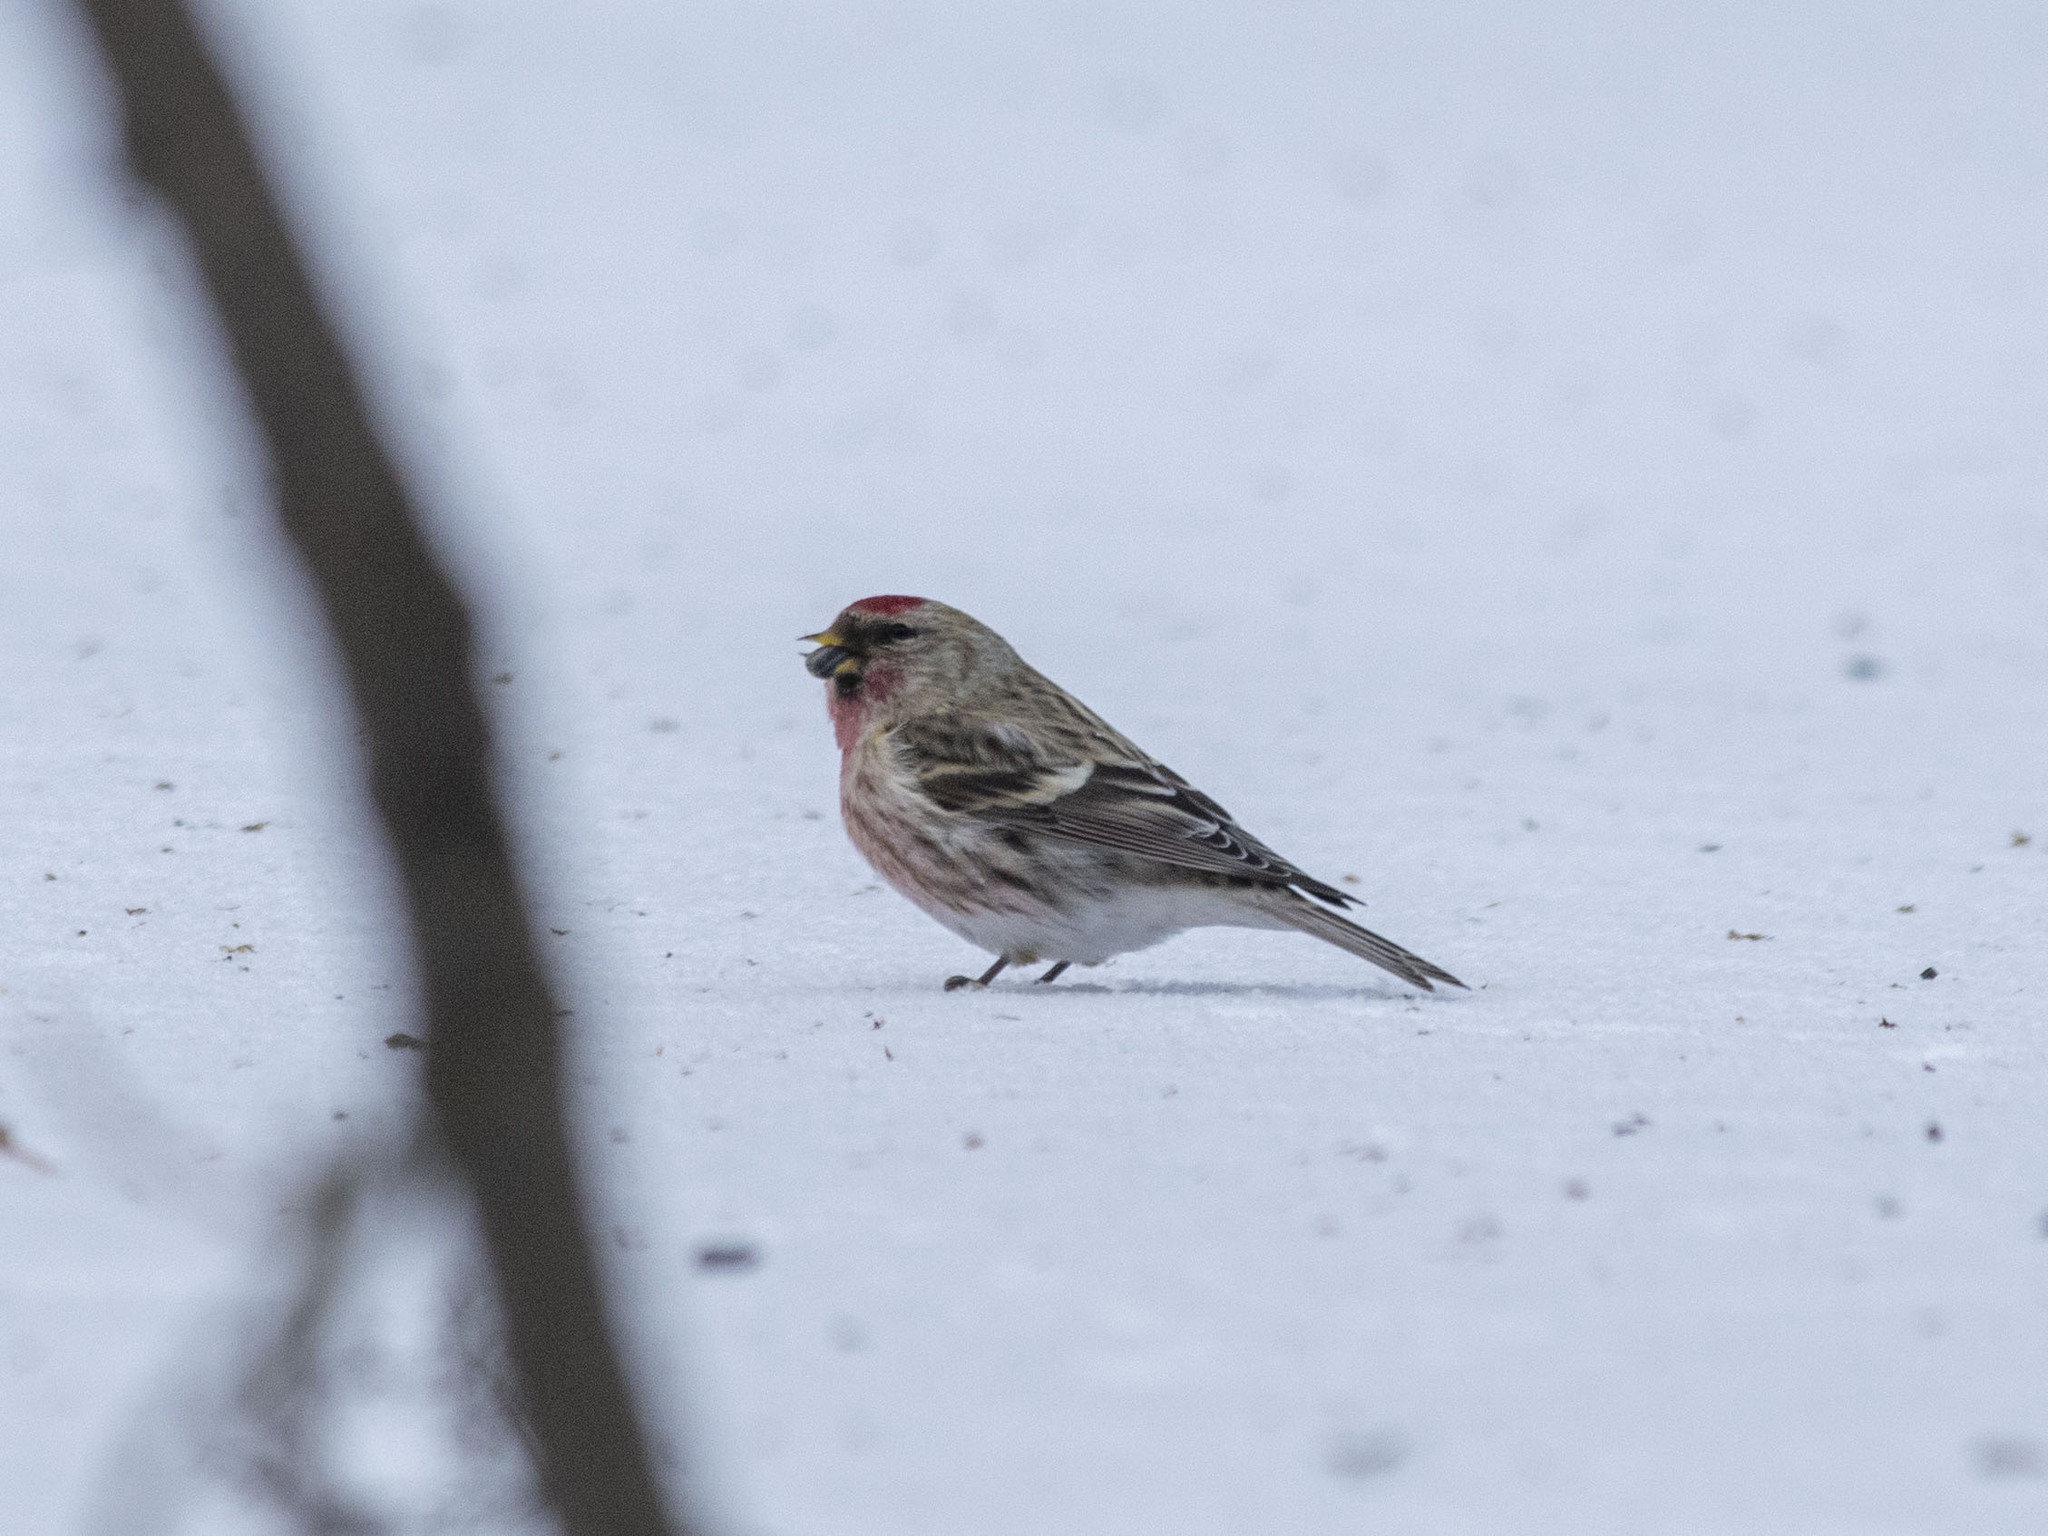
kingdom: Animalia
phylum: Chordata
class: Aves
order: Passeriformes
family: Fringillidae
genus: Acanthis
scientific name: Acanthis flammea
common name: Common redpoll
